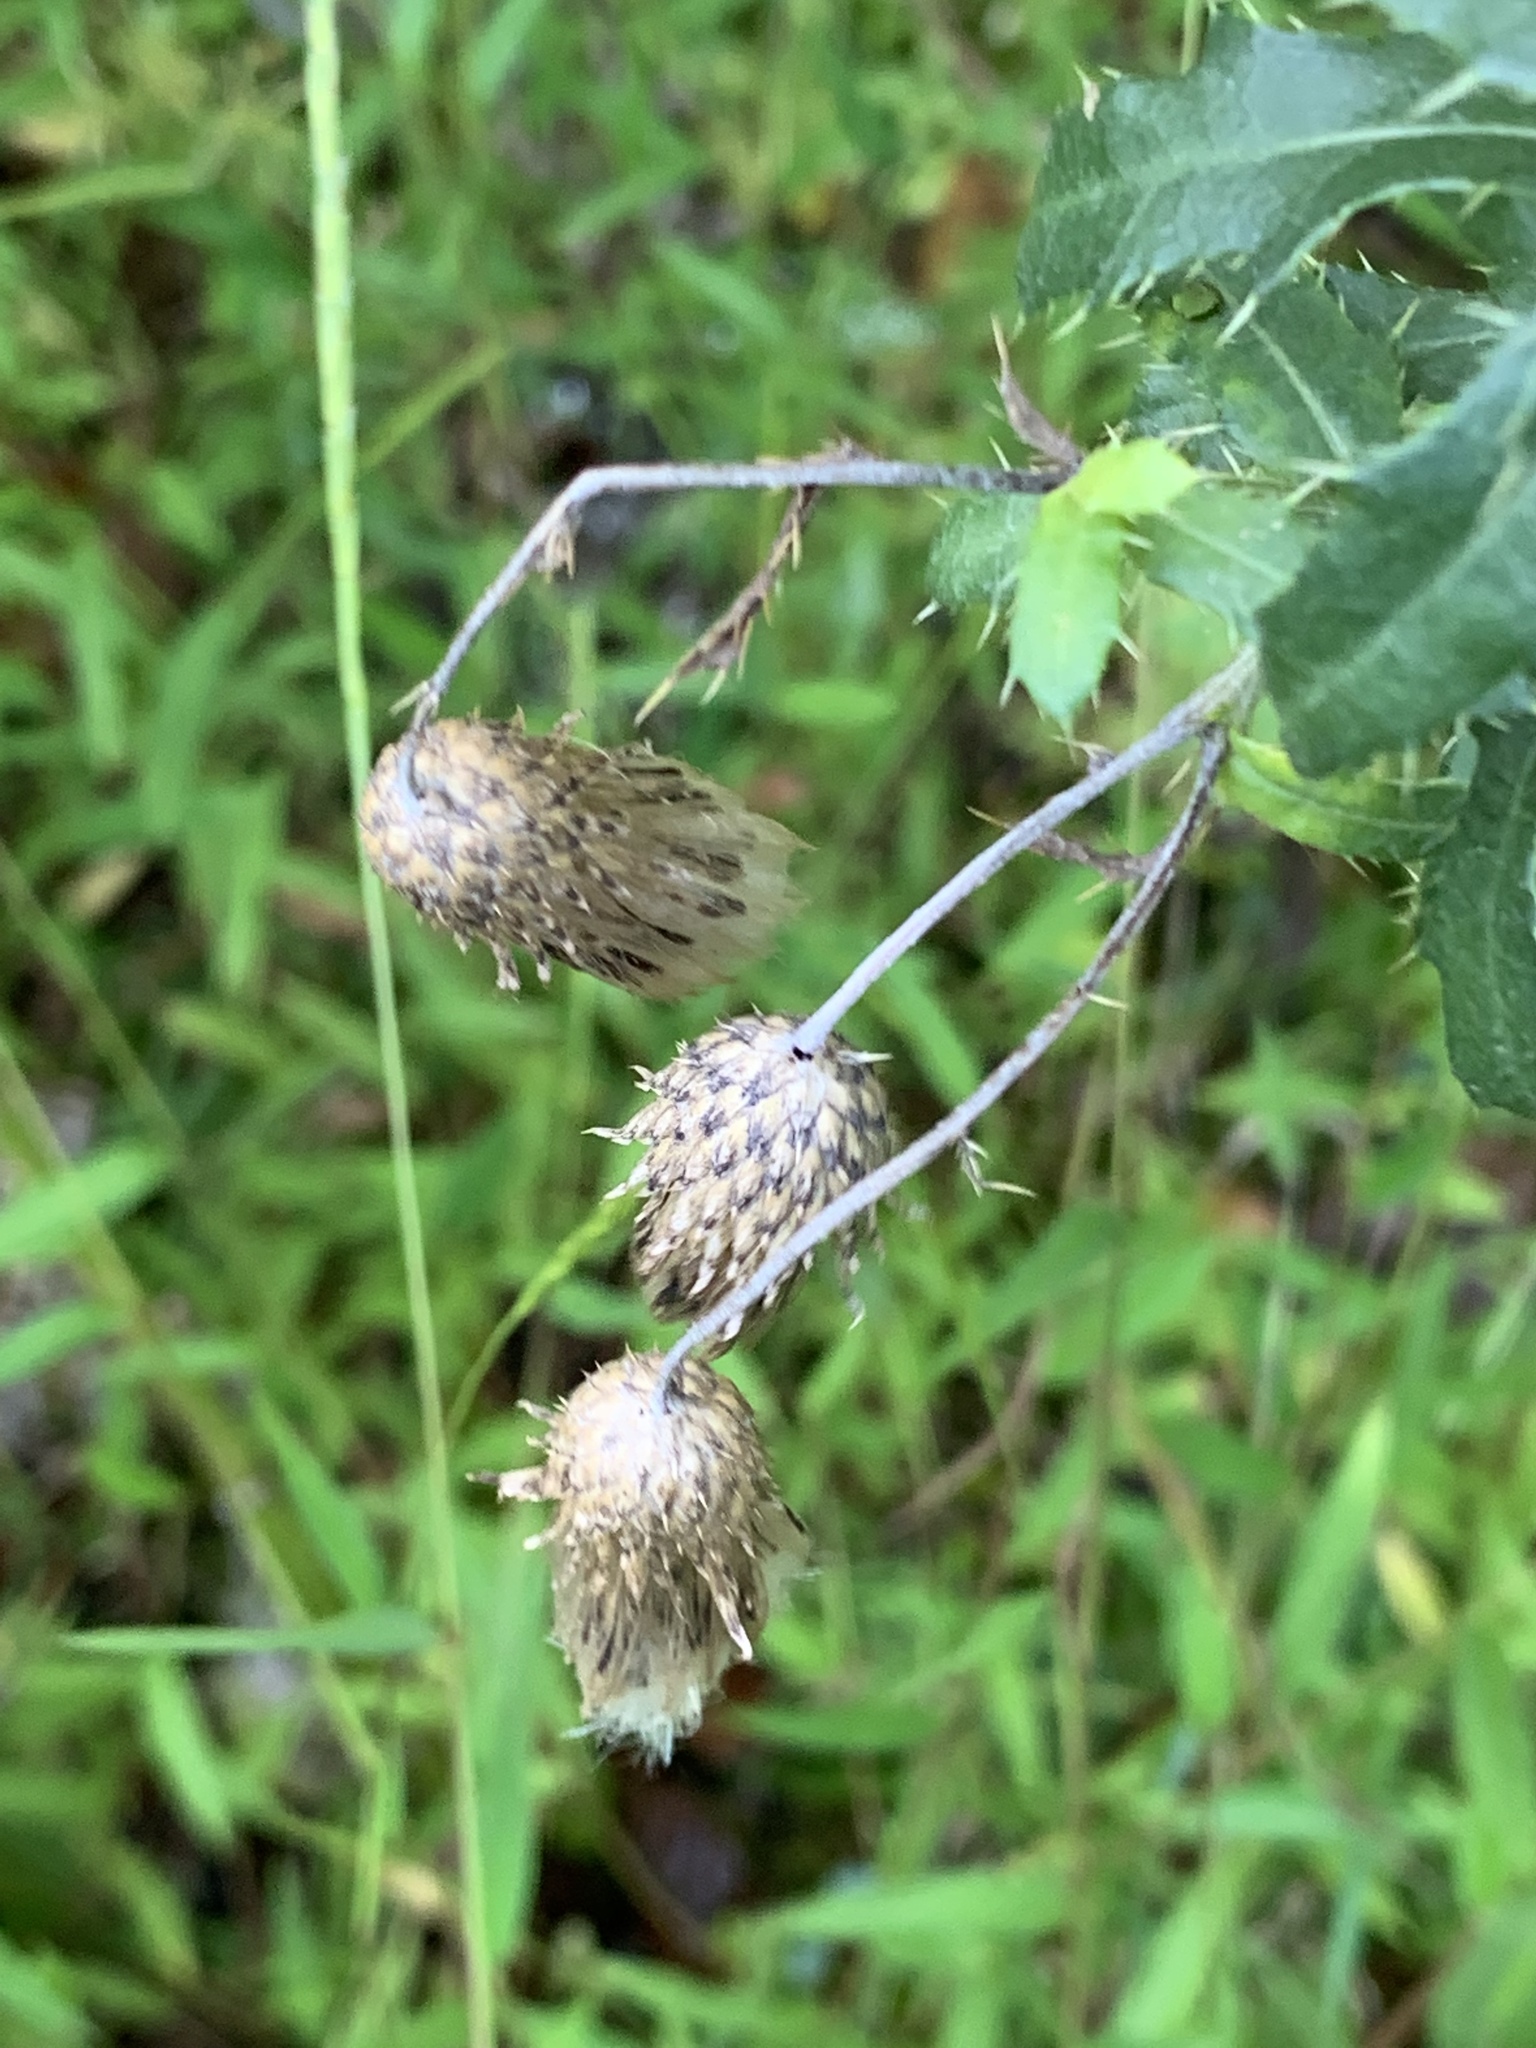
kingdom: Plantae
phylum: Tracheophyta
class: Magnoliopsida
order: Asterales
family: Asteraceae
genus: Cirsium
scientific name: Cirsium arvense
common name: Creeping thistle
